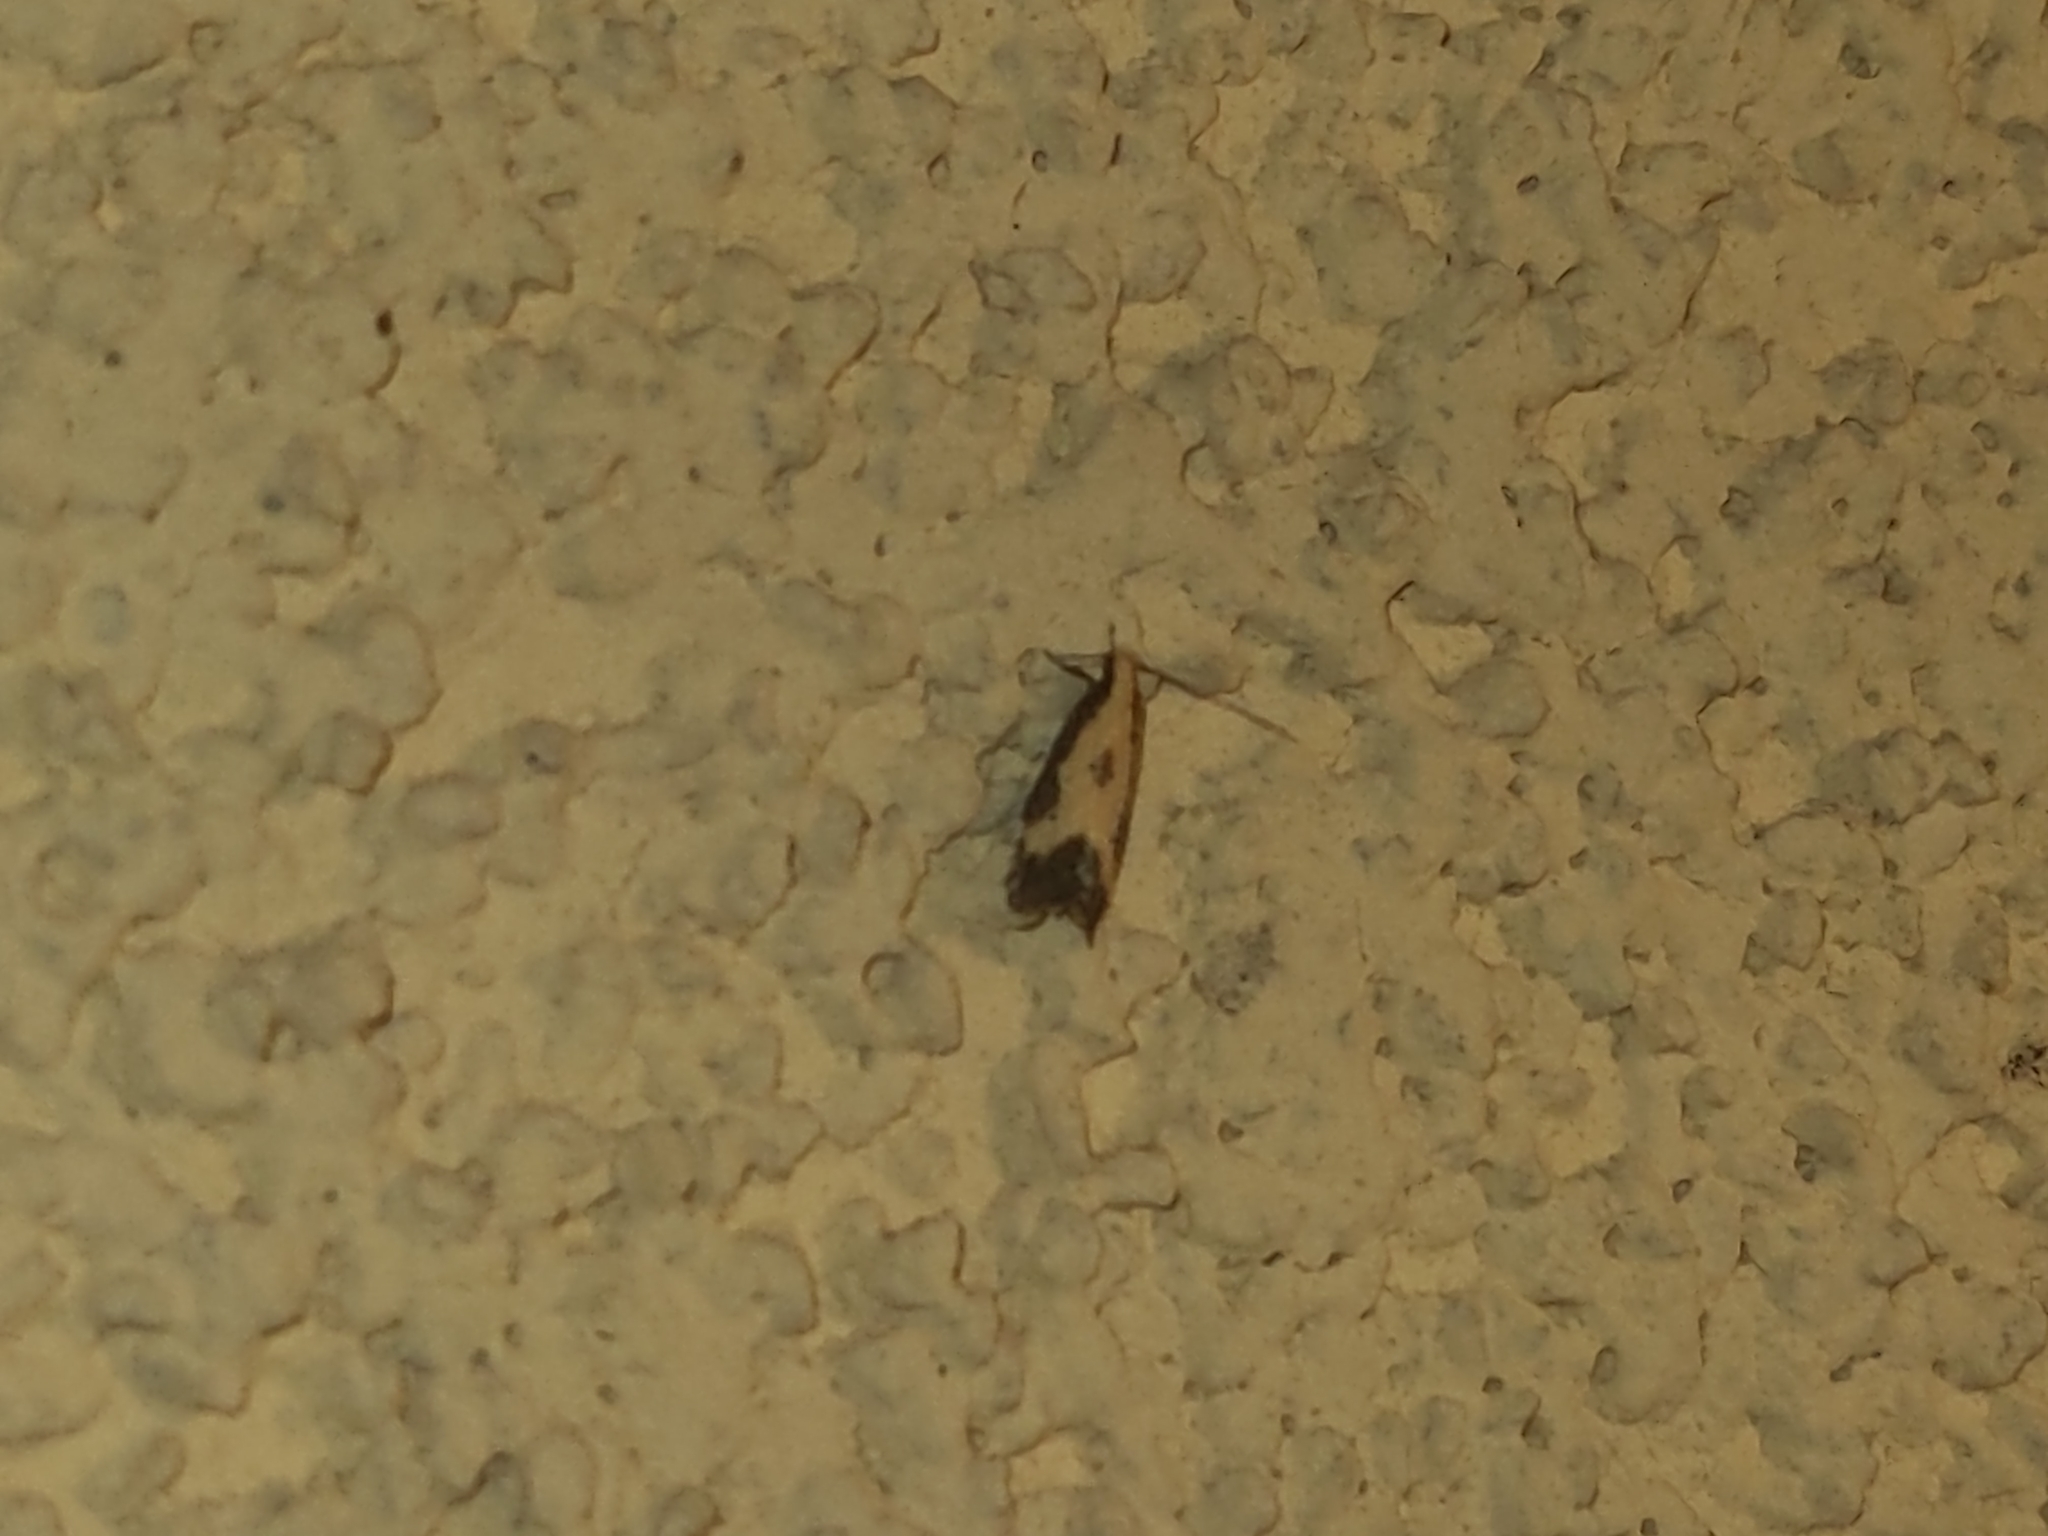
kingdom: Animalia
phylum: Arthropoda
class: Insecta
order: Lepidoptera
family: Gelechiidae
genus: Brachmia
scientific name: Brachmia dimidiella
